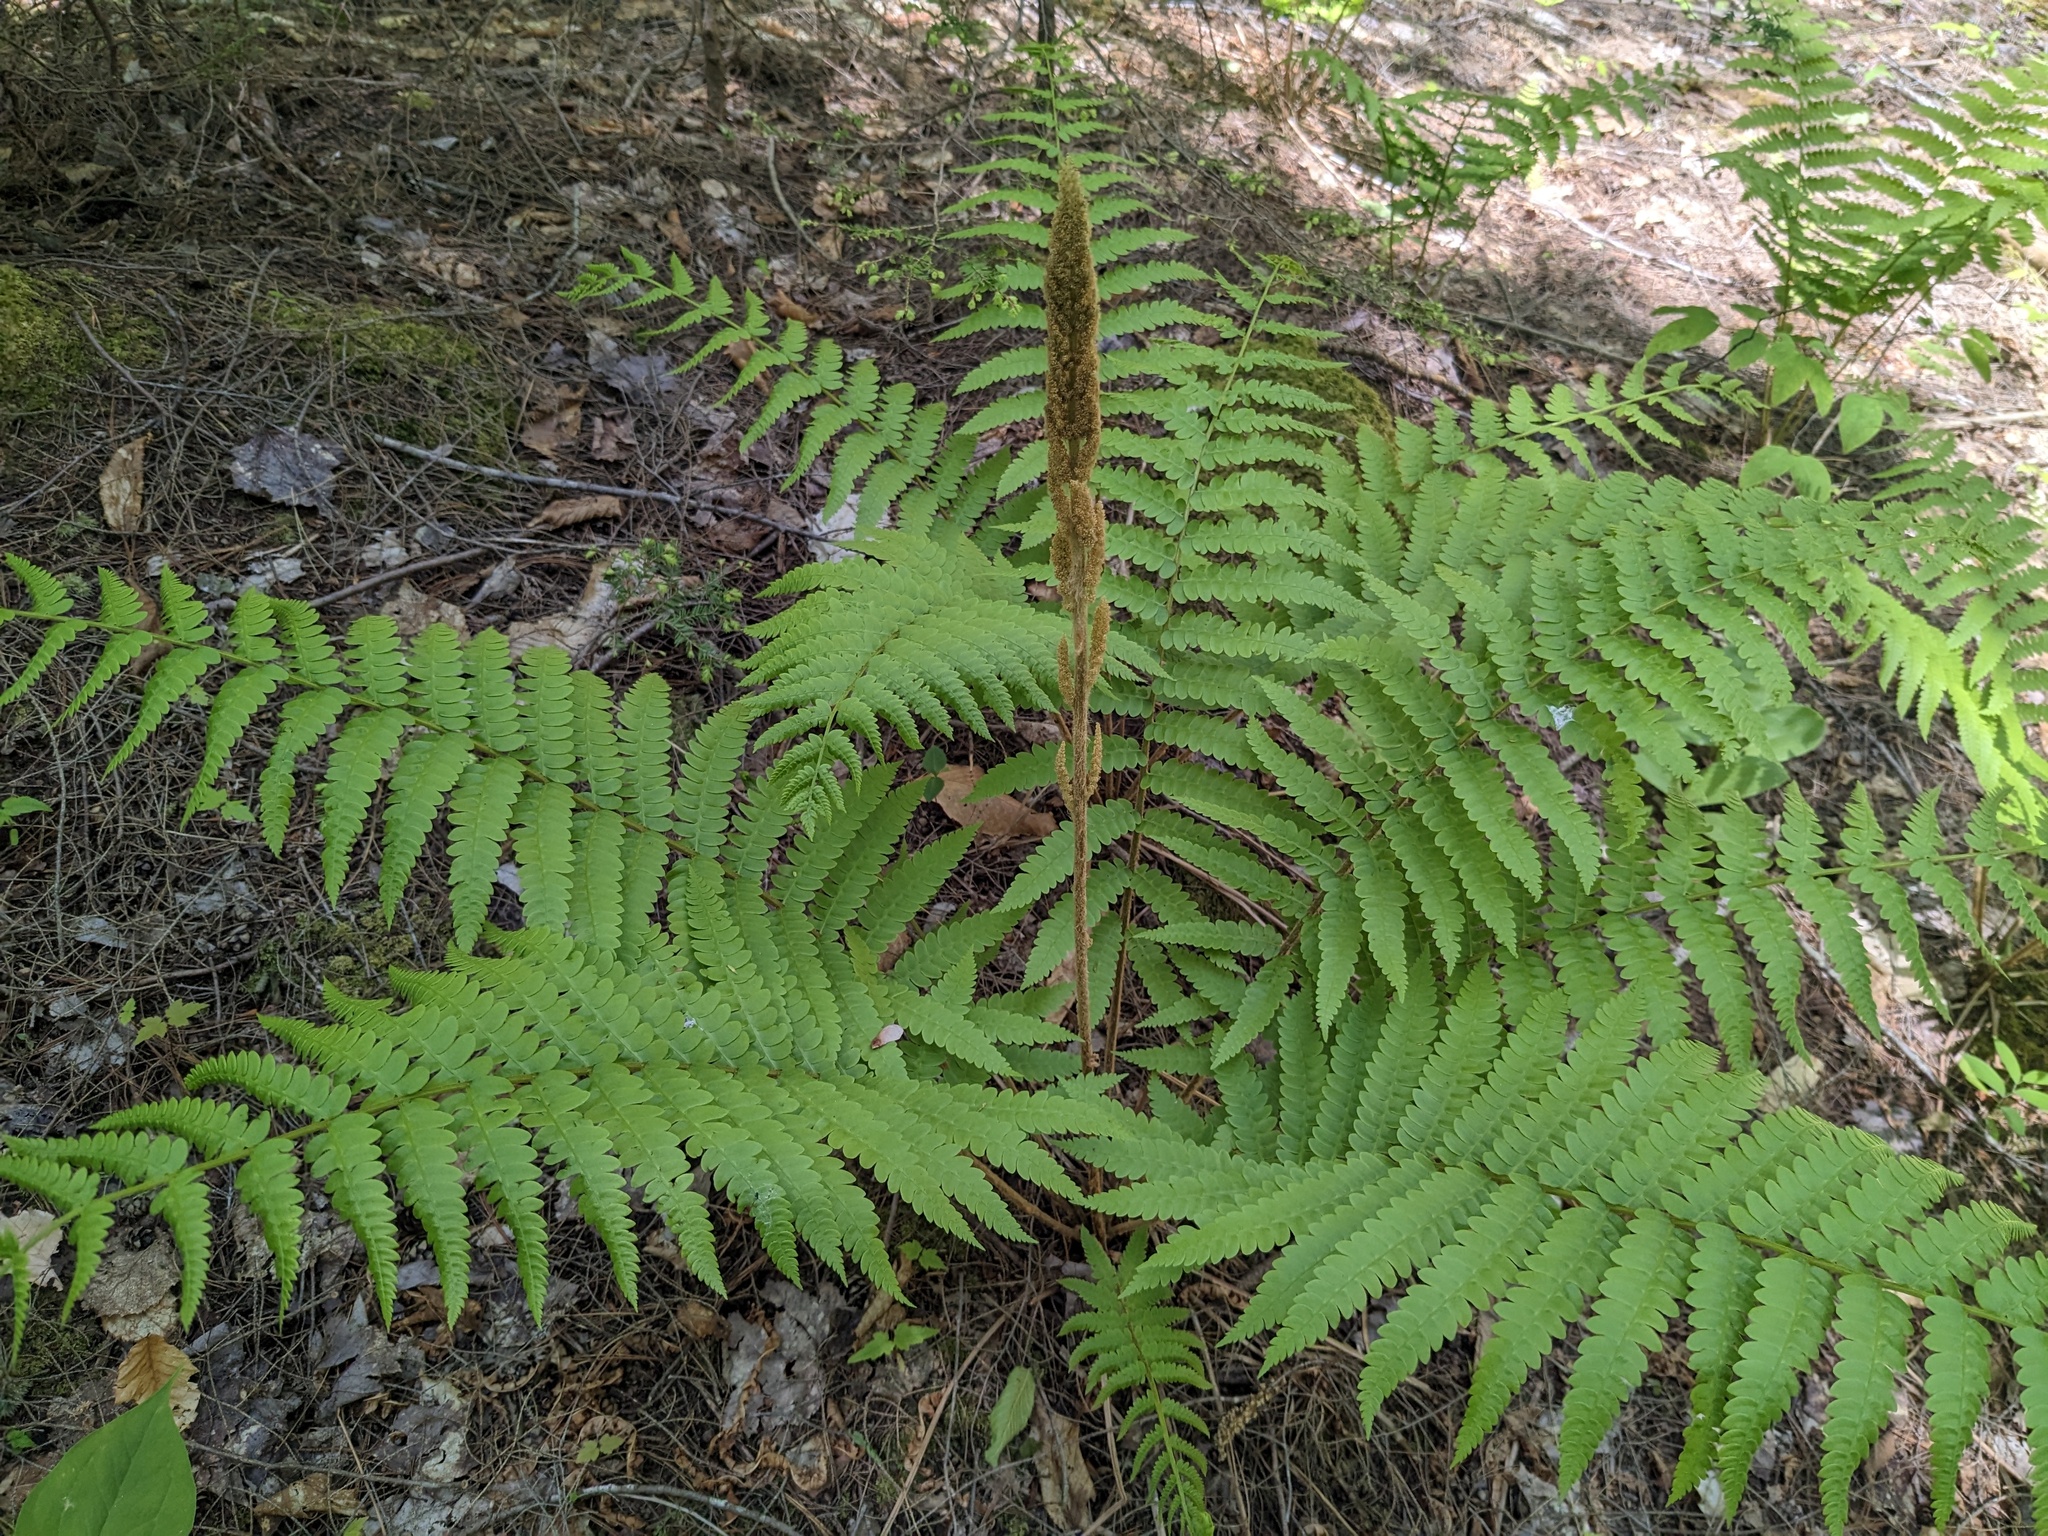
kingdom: Plantae
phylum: Tracheophyta
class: Polypodiopsida
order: Osmundales
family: Osmundaceae
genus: Osmundastrum
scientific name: Osmundastrum cinnamomeum
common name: Cinnamon fern
